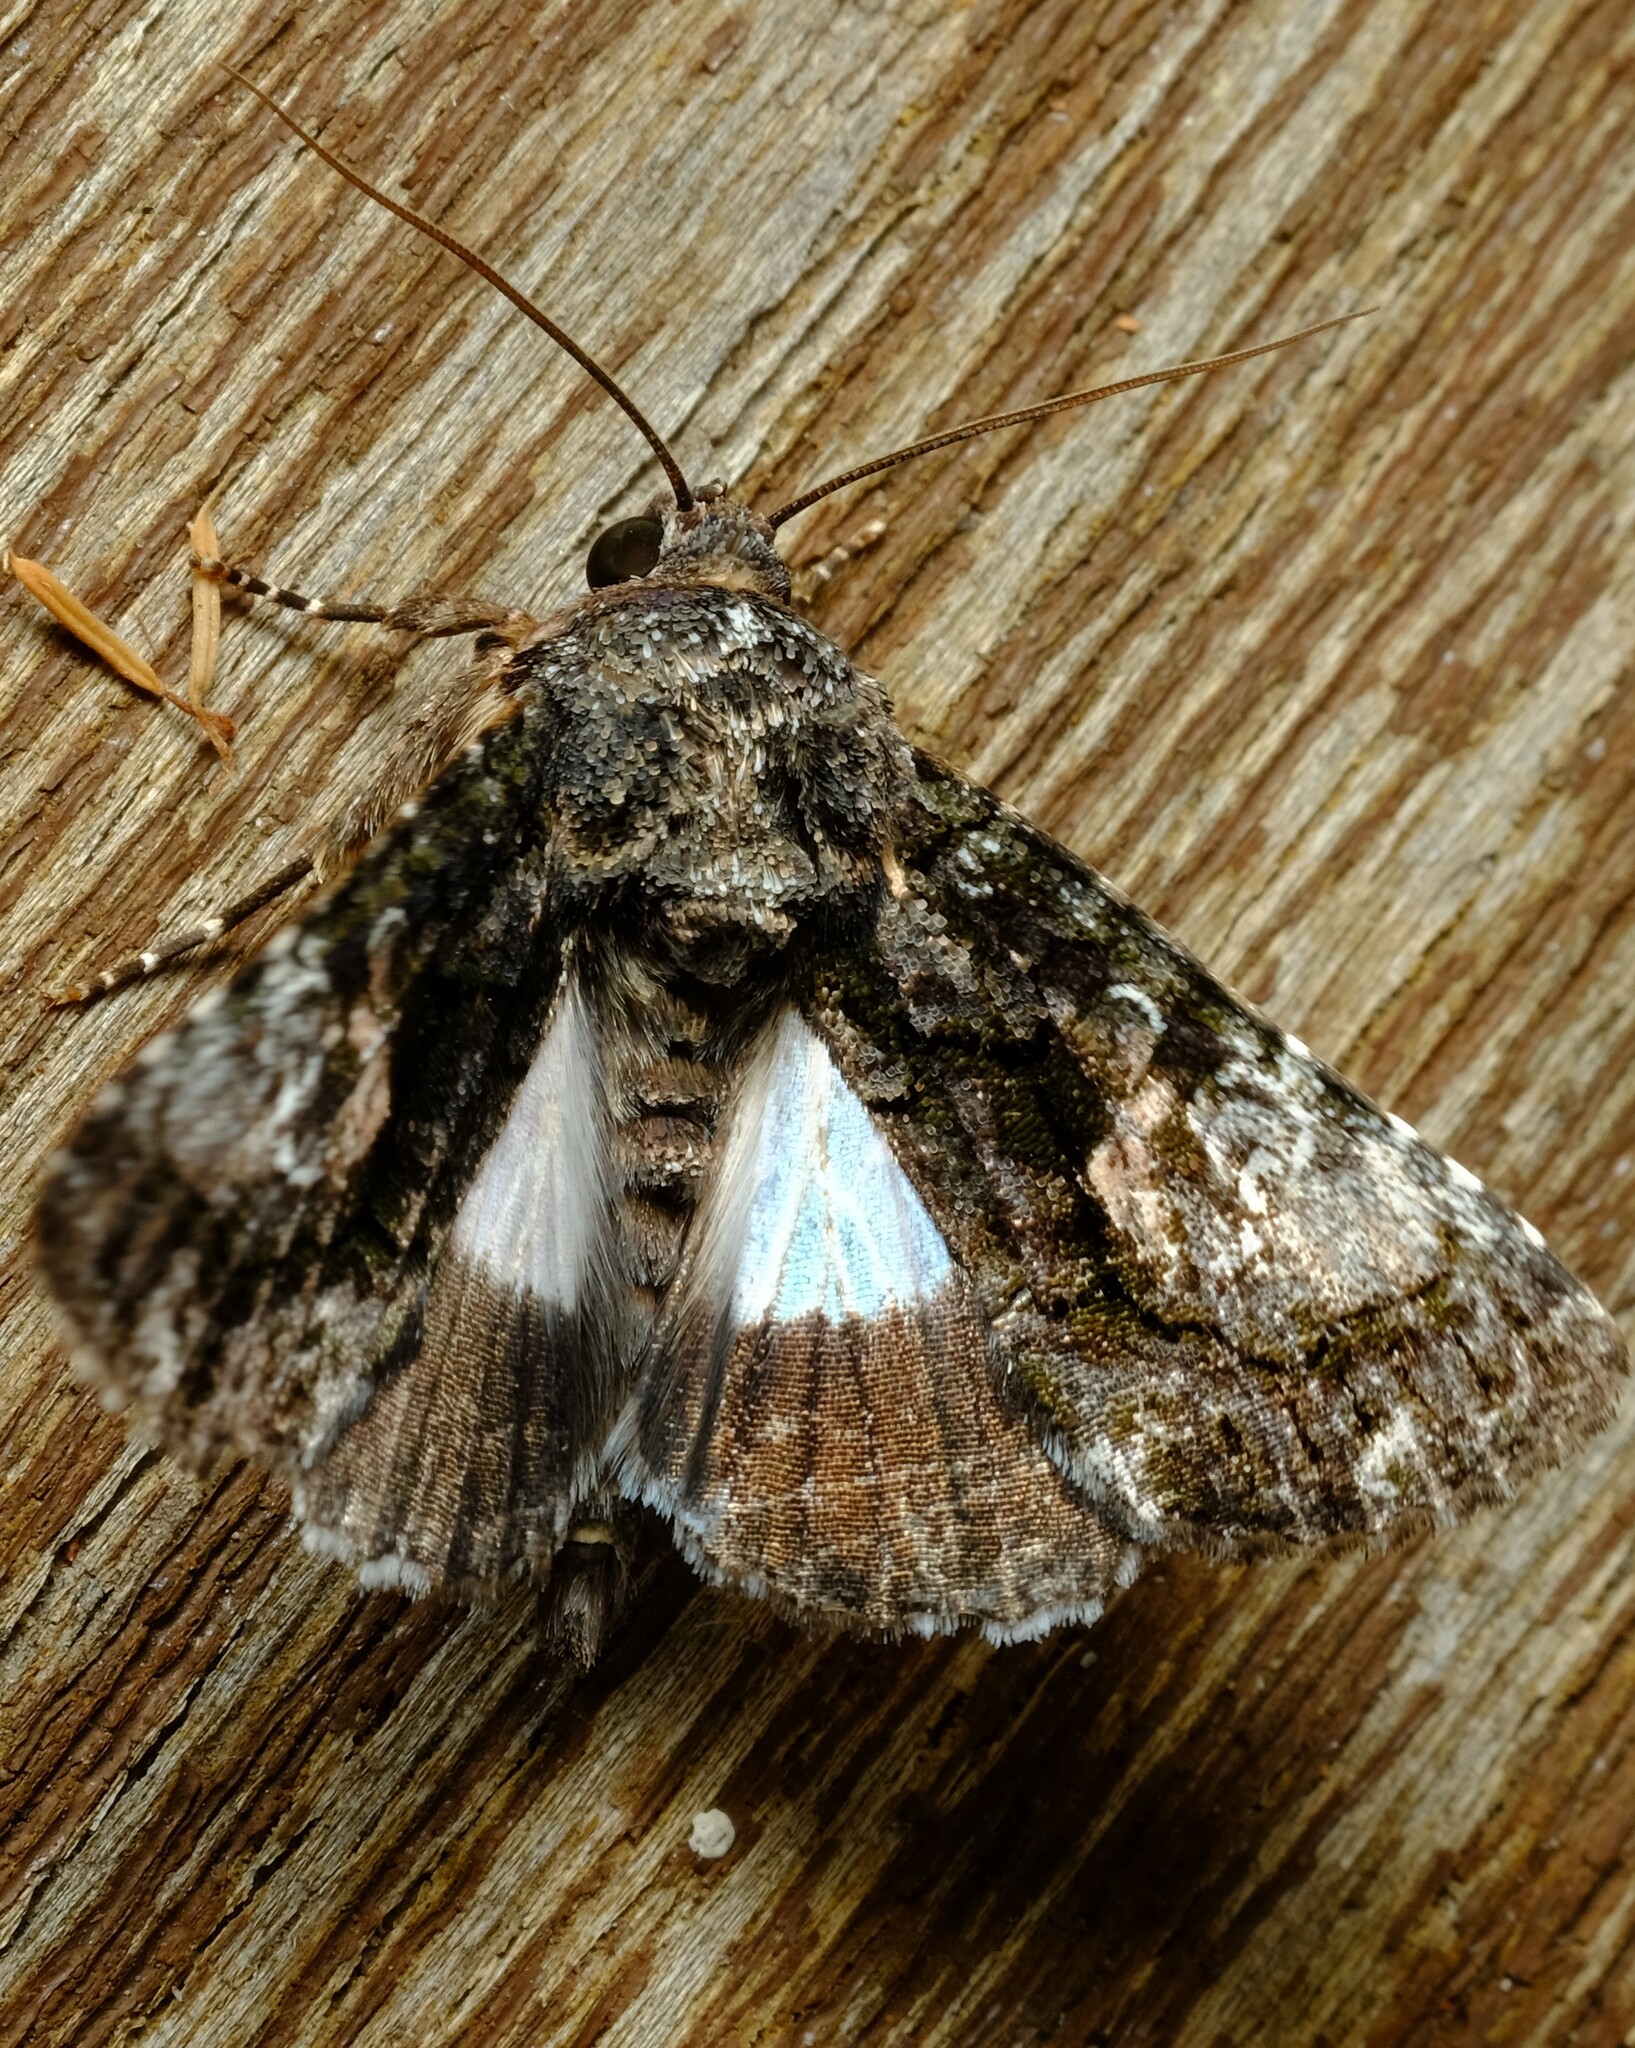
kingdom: Animalia
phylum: Arthropoda
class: Insecta
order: Lepidoptera
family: Noctuidae
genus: Aedia
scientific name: Aedia leucomelas
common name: Sorcerer
